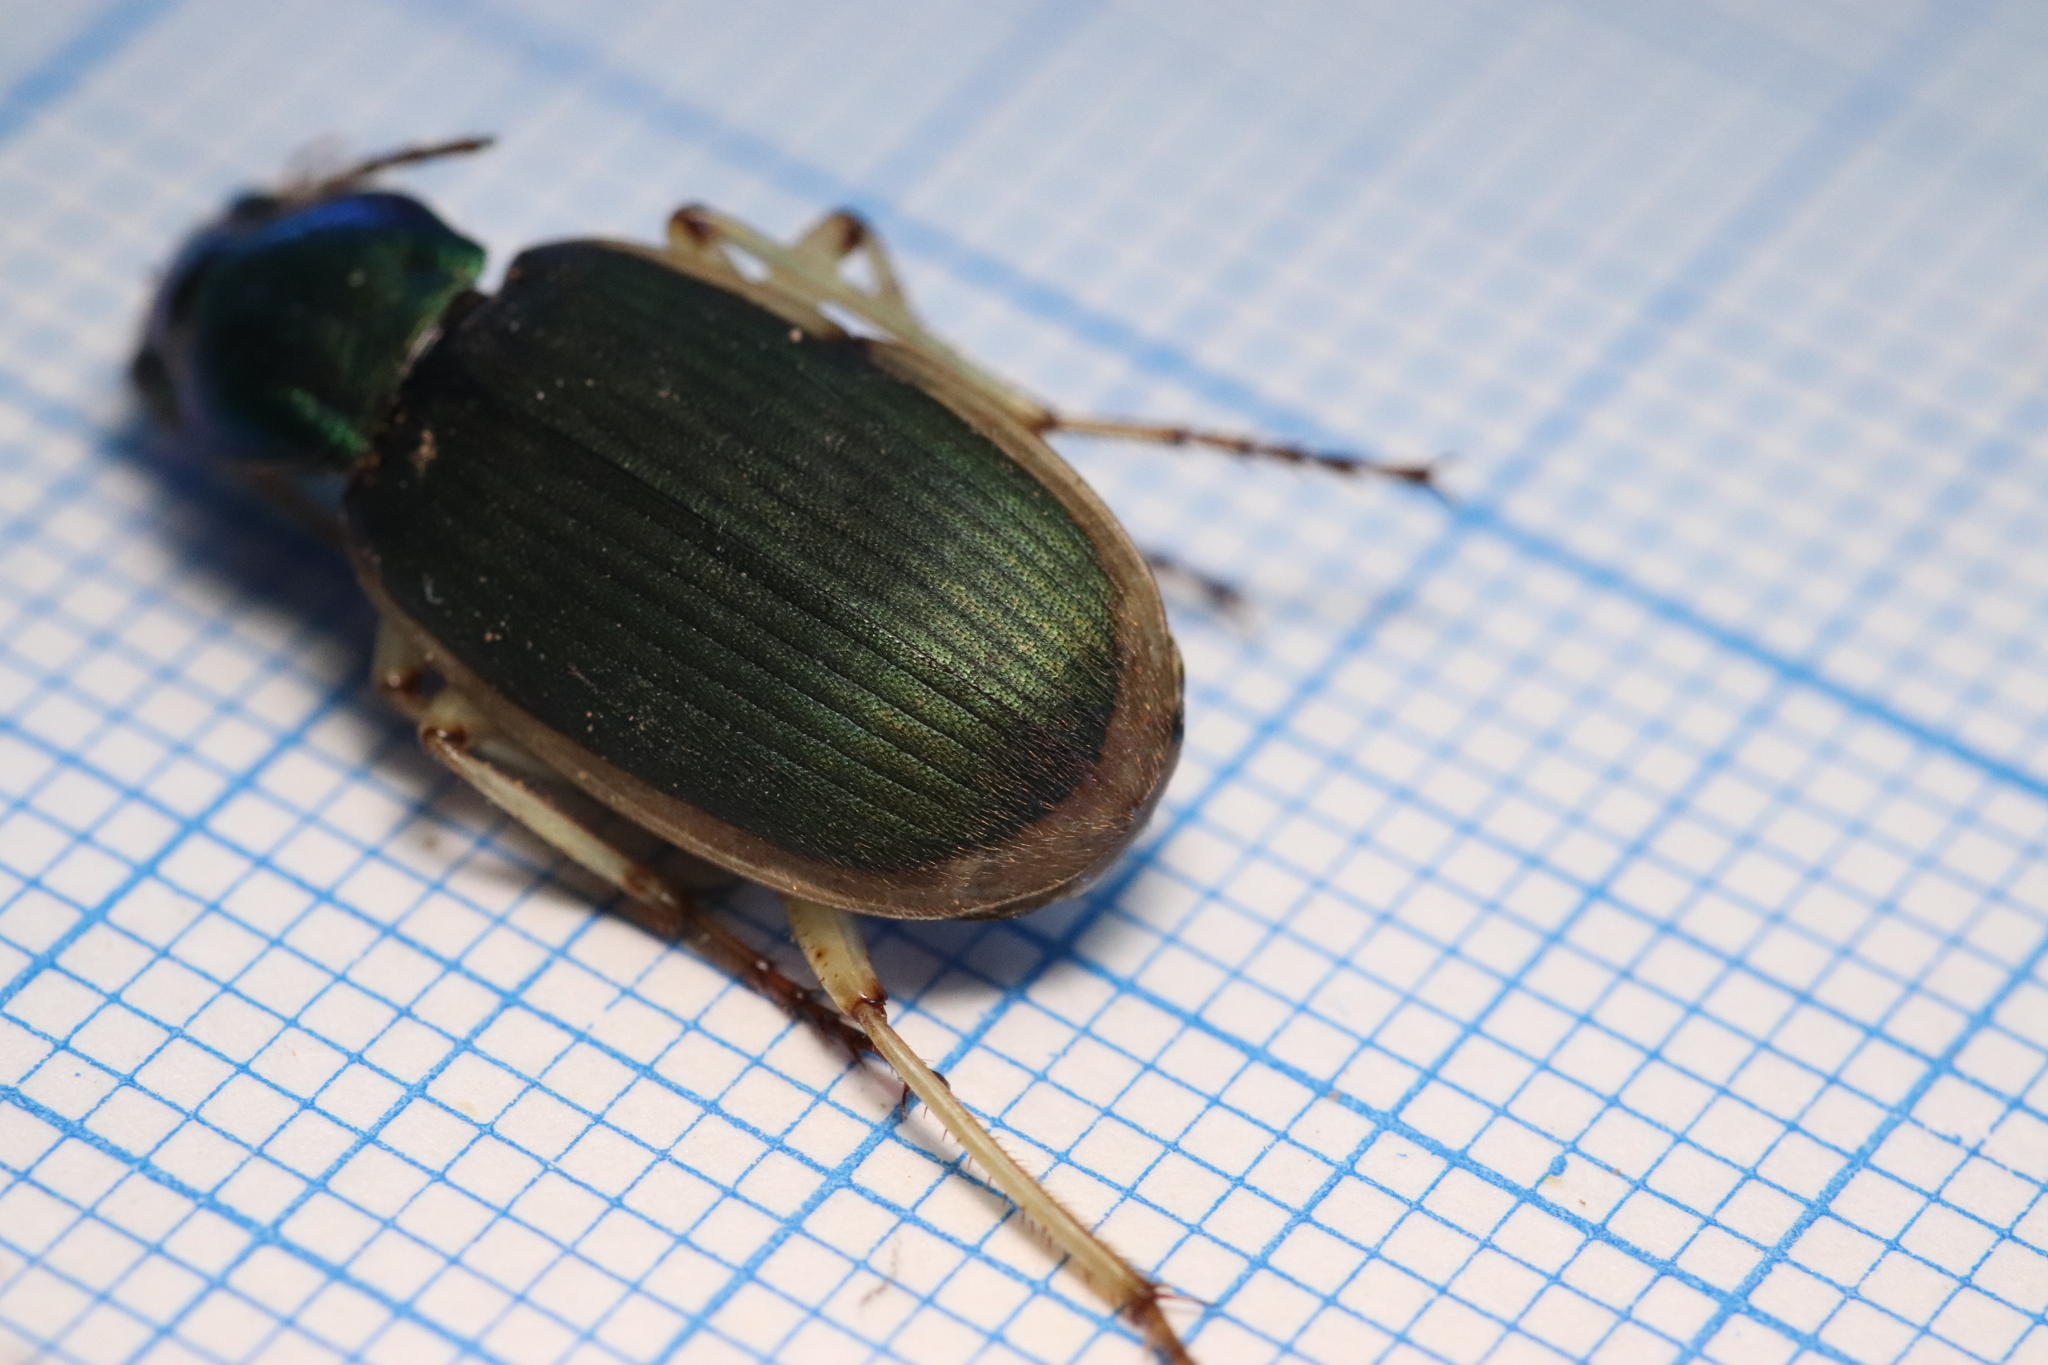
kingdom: Animalia
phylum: Arthropoda
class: Insecta
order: Coleoptera
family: Carabidae
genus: Chlaenius
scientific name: Chlaenius festivus
